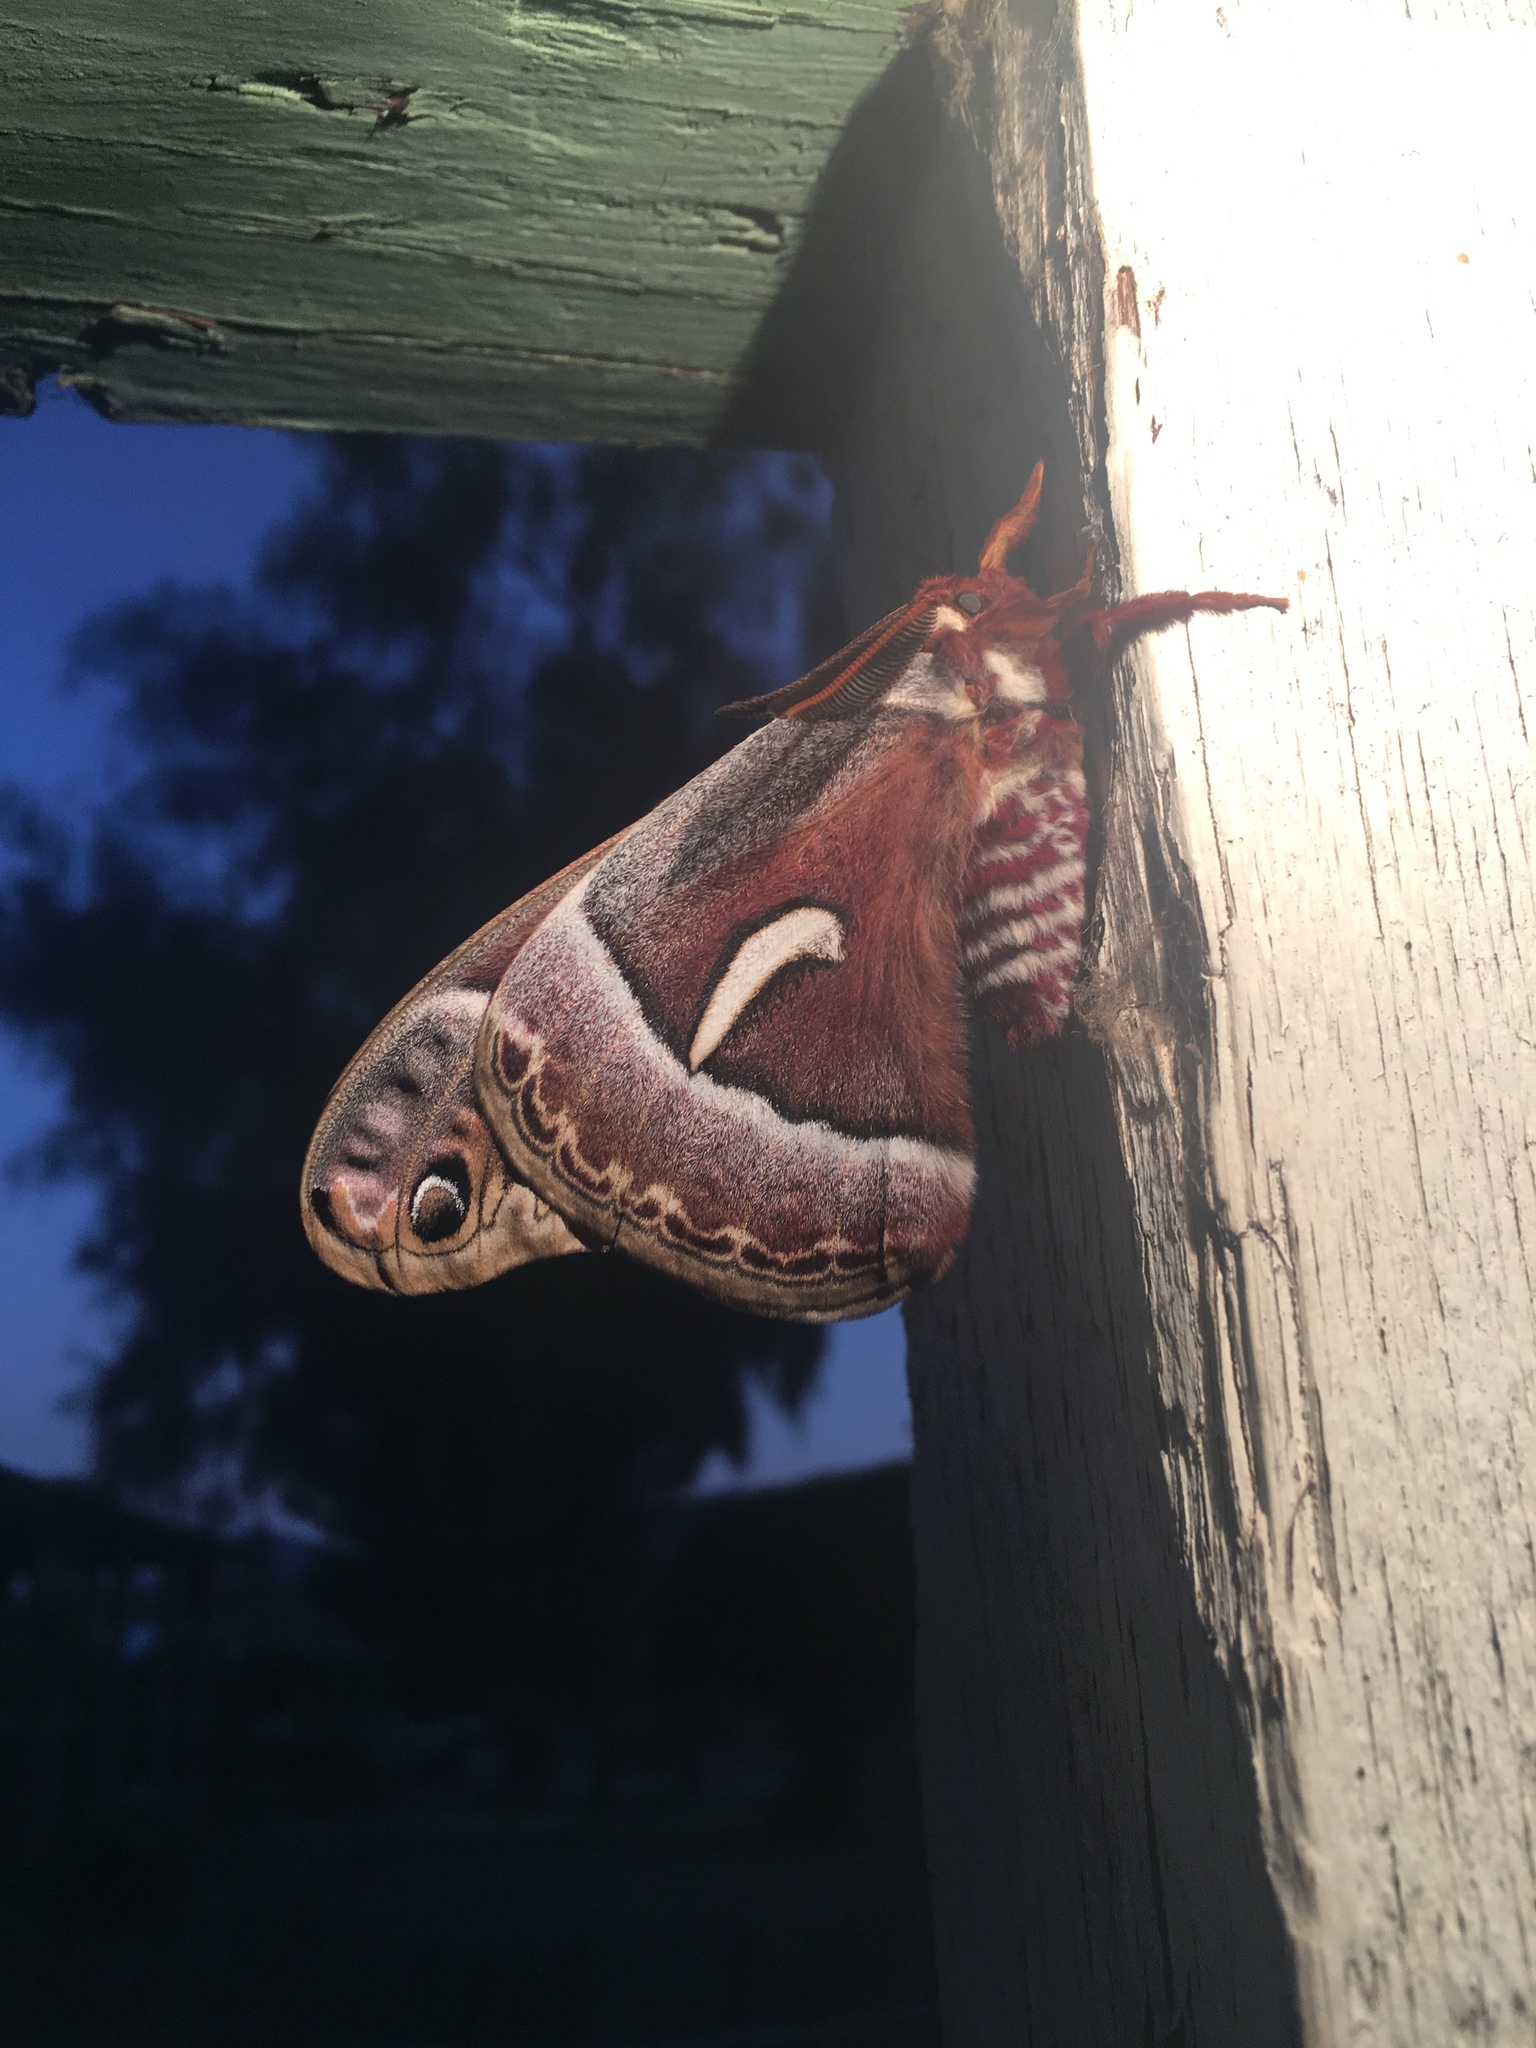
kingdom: Animalia
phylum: Arthropoda
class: Insecta
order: Lepidoptera
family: Saturniidae
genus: Hyalophora
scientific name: Hyalophora euryalus
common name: Ceanothus silkmoth
